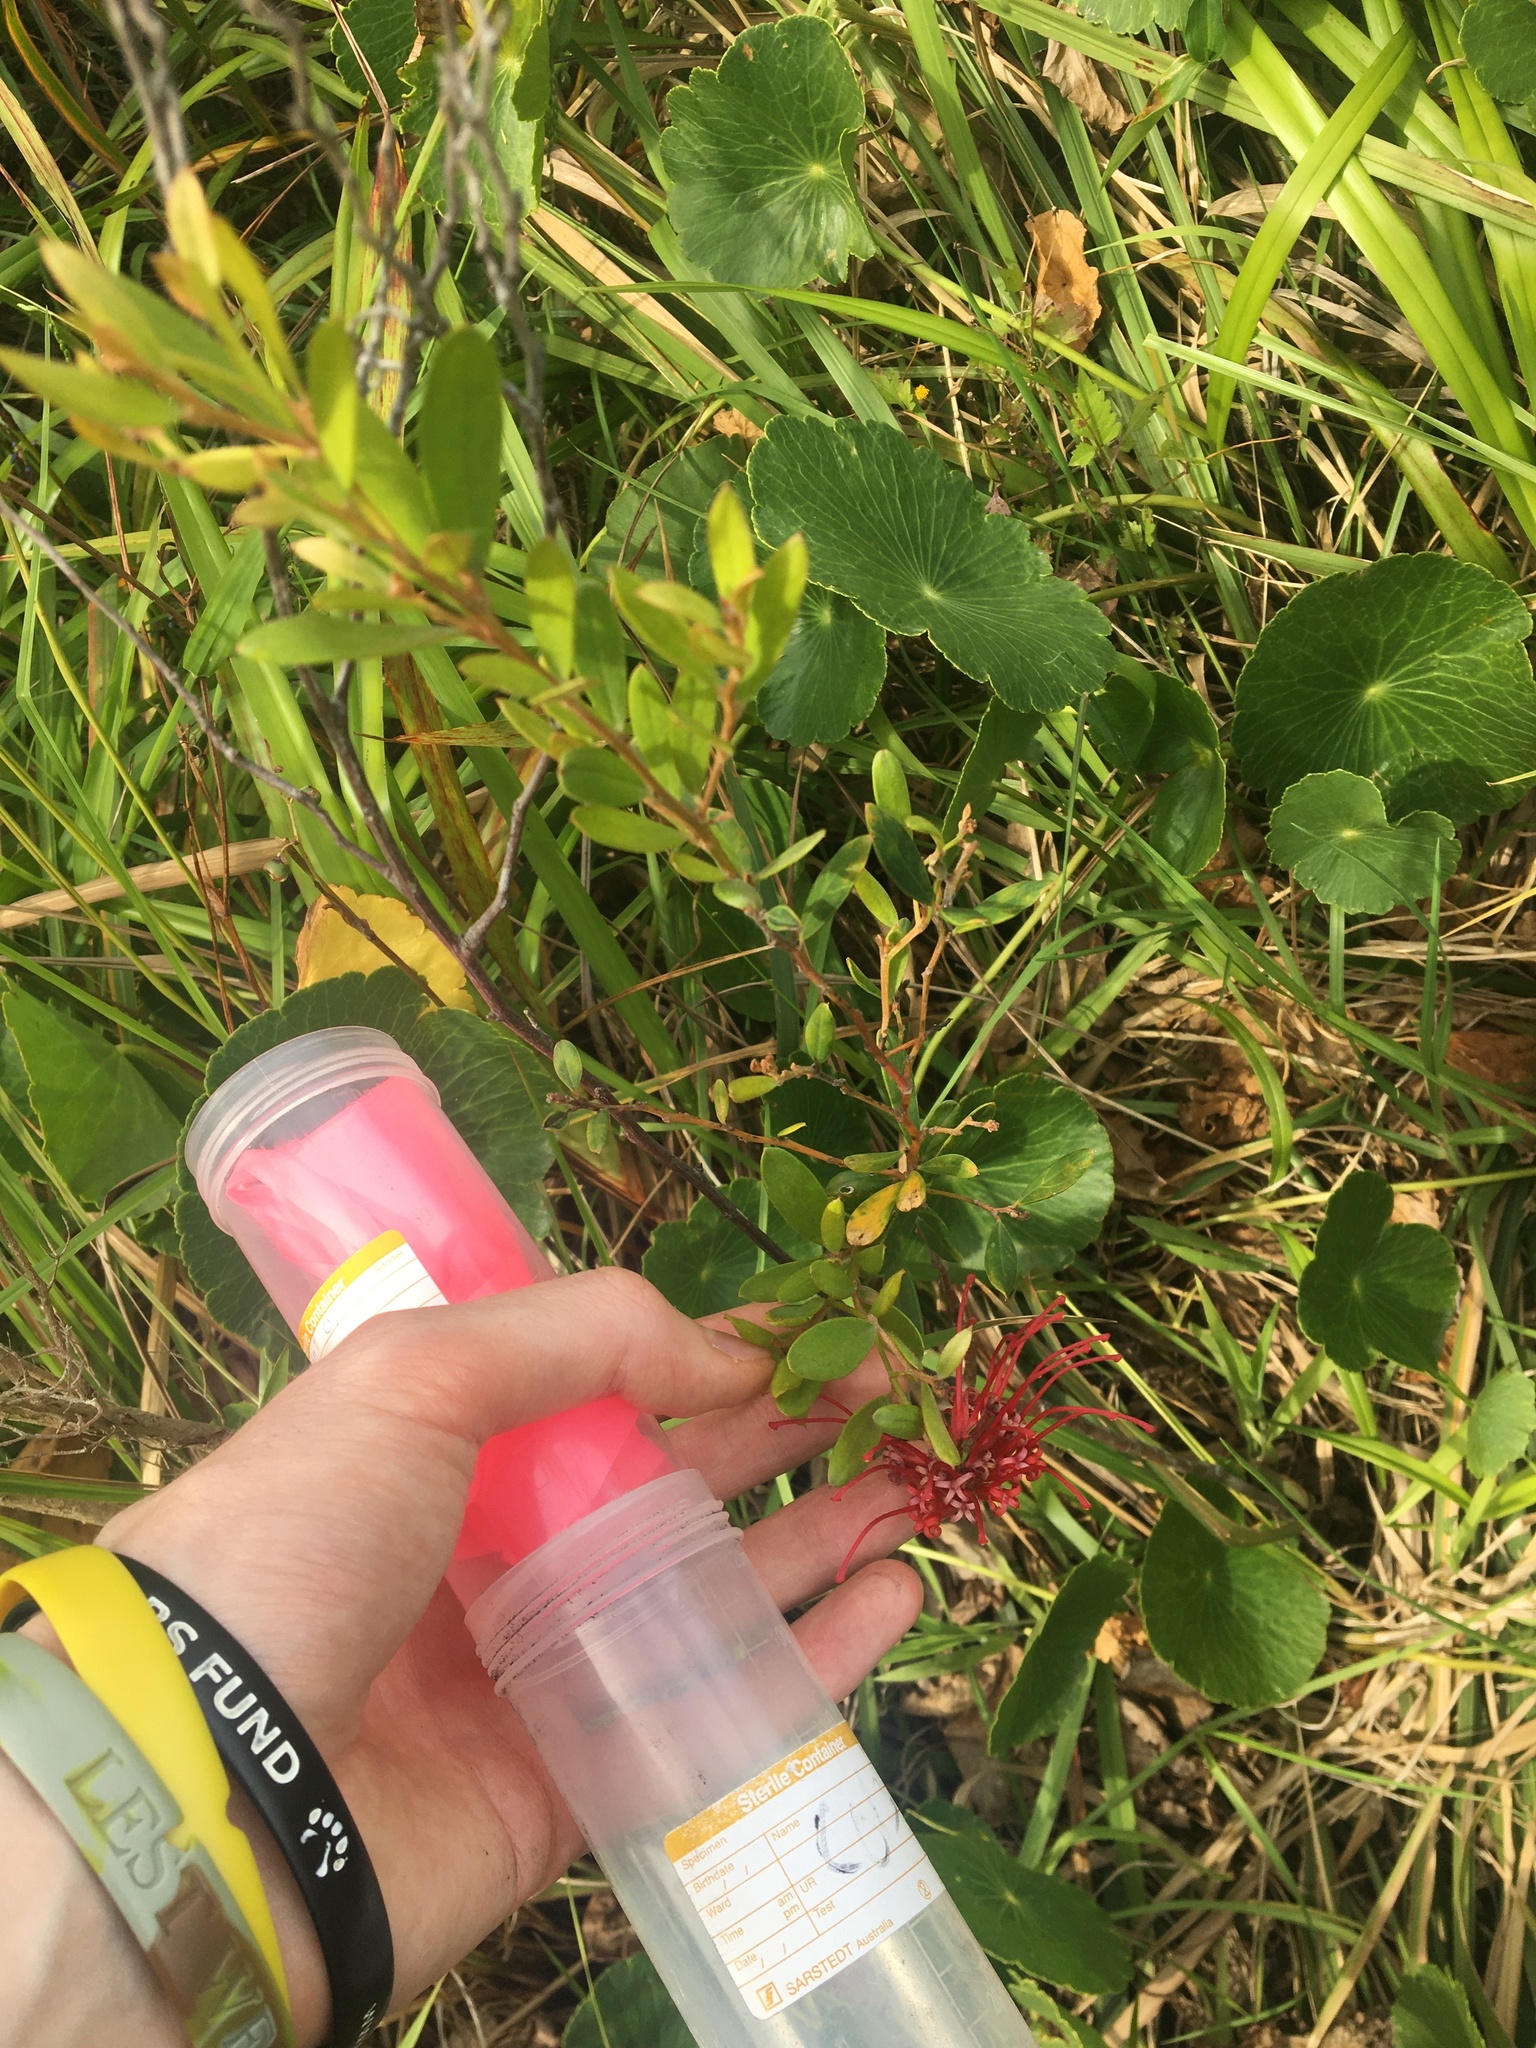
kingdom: Plantae
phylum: Tracheophyta
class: Magnoliopsida
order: Proteales
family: Proteaceae
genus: Grevillea
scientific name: Grevillea speciosa
